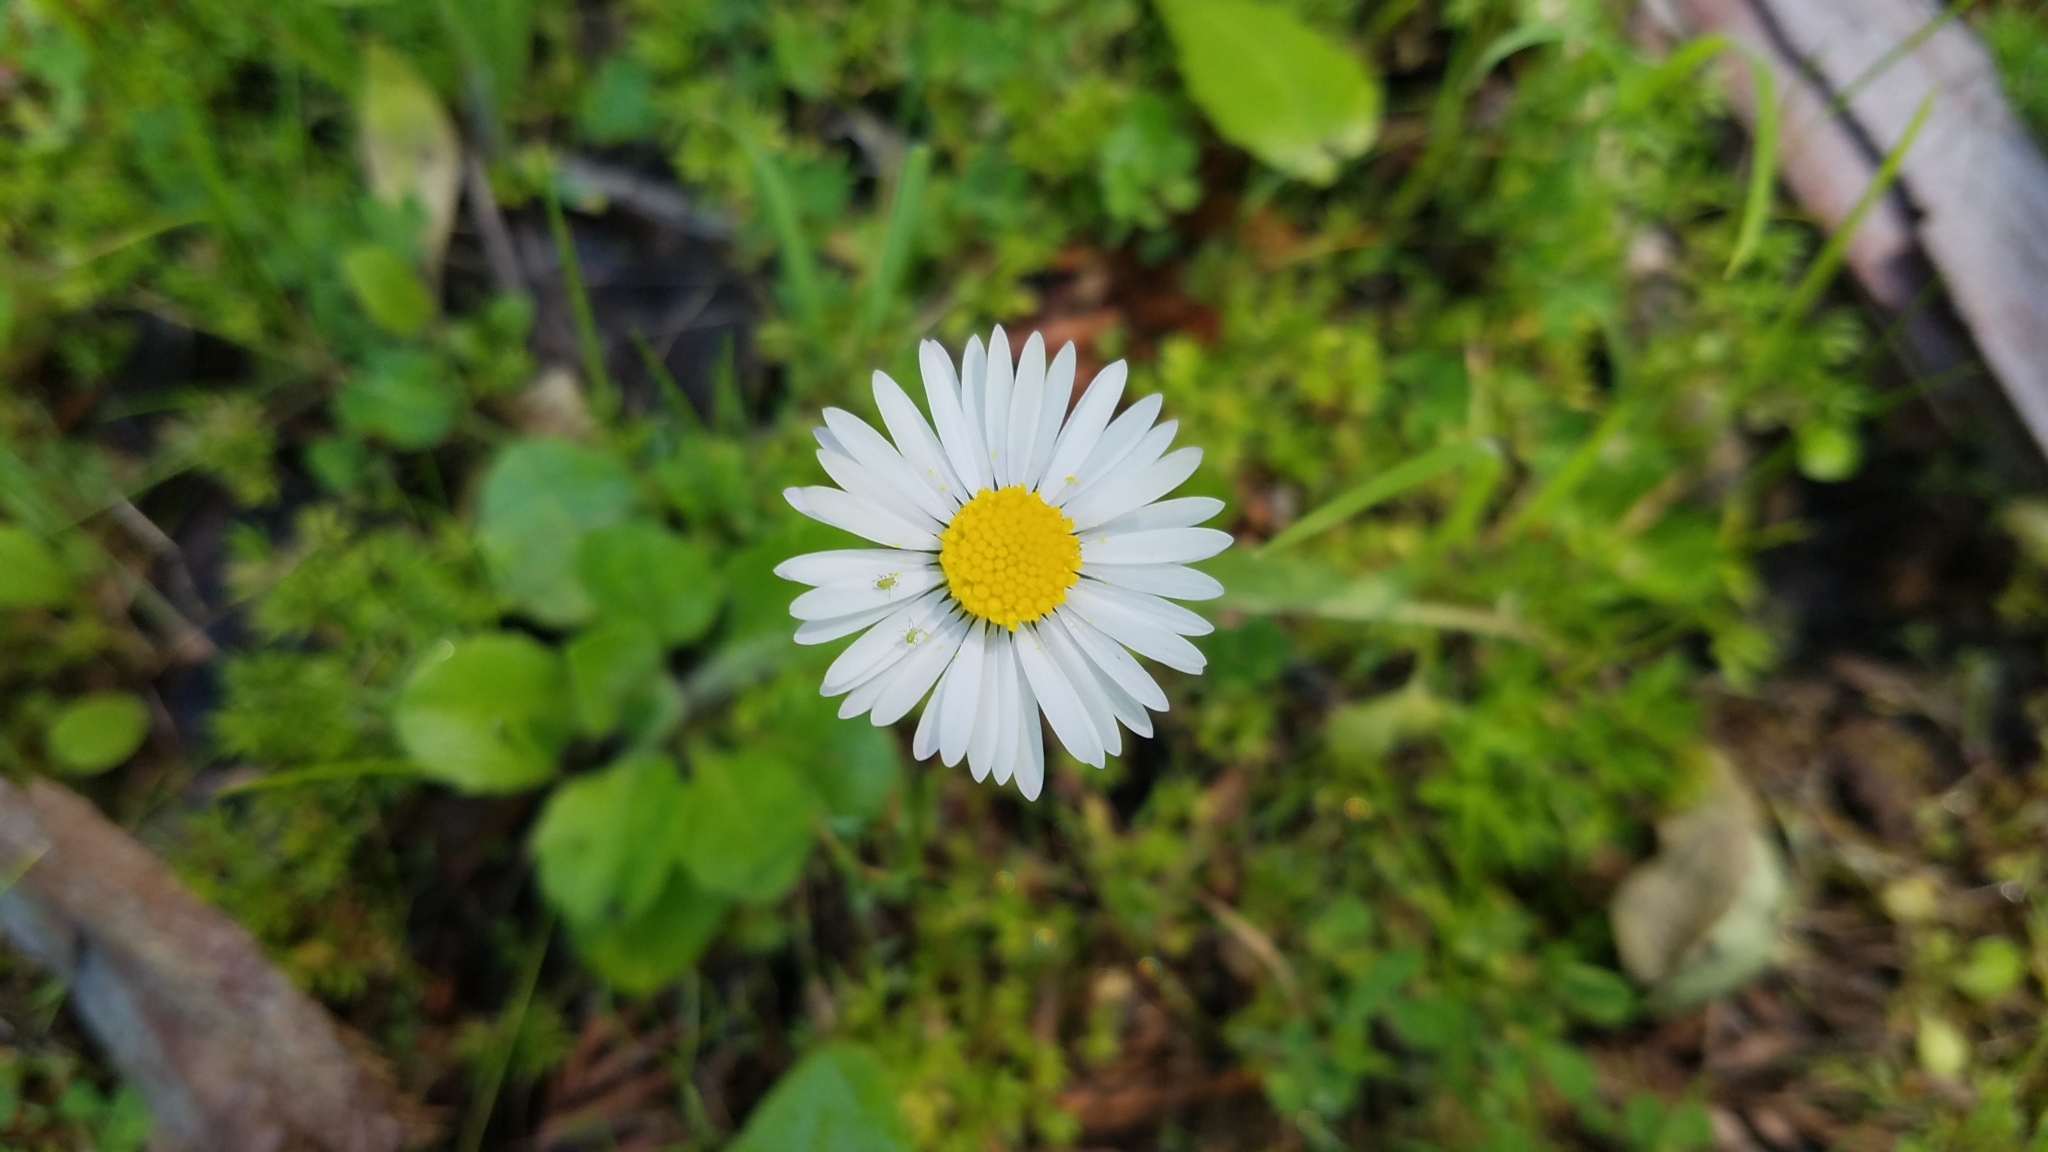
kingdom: Plantae
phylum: Tracheophyta
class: Magnoliopsida
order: Asterales
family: Asteraceae
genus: Bellis
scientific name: Bellis perennis
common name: Lawndaisy
